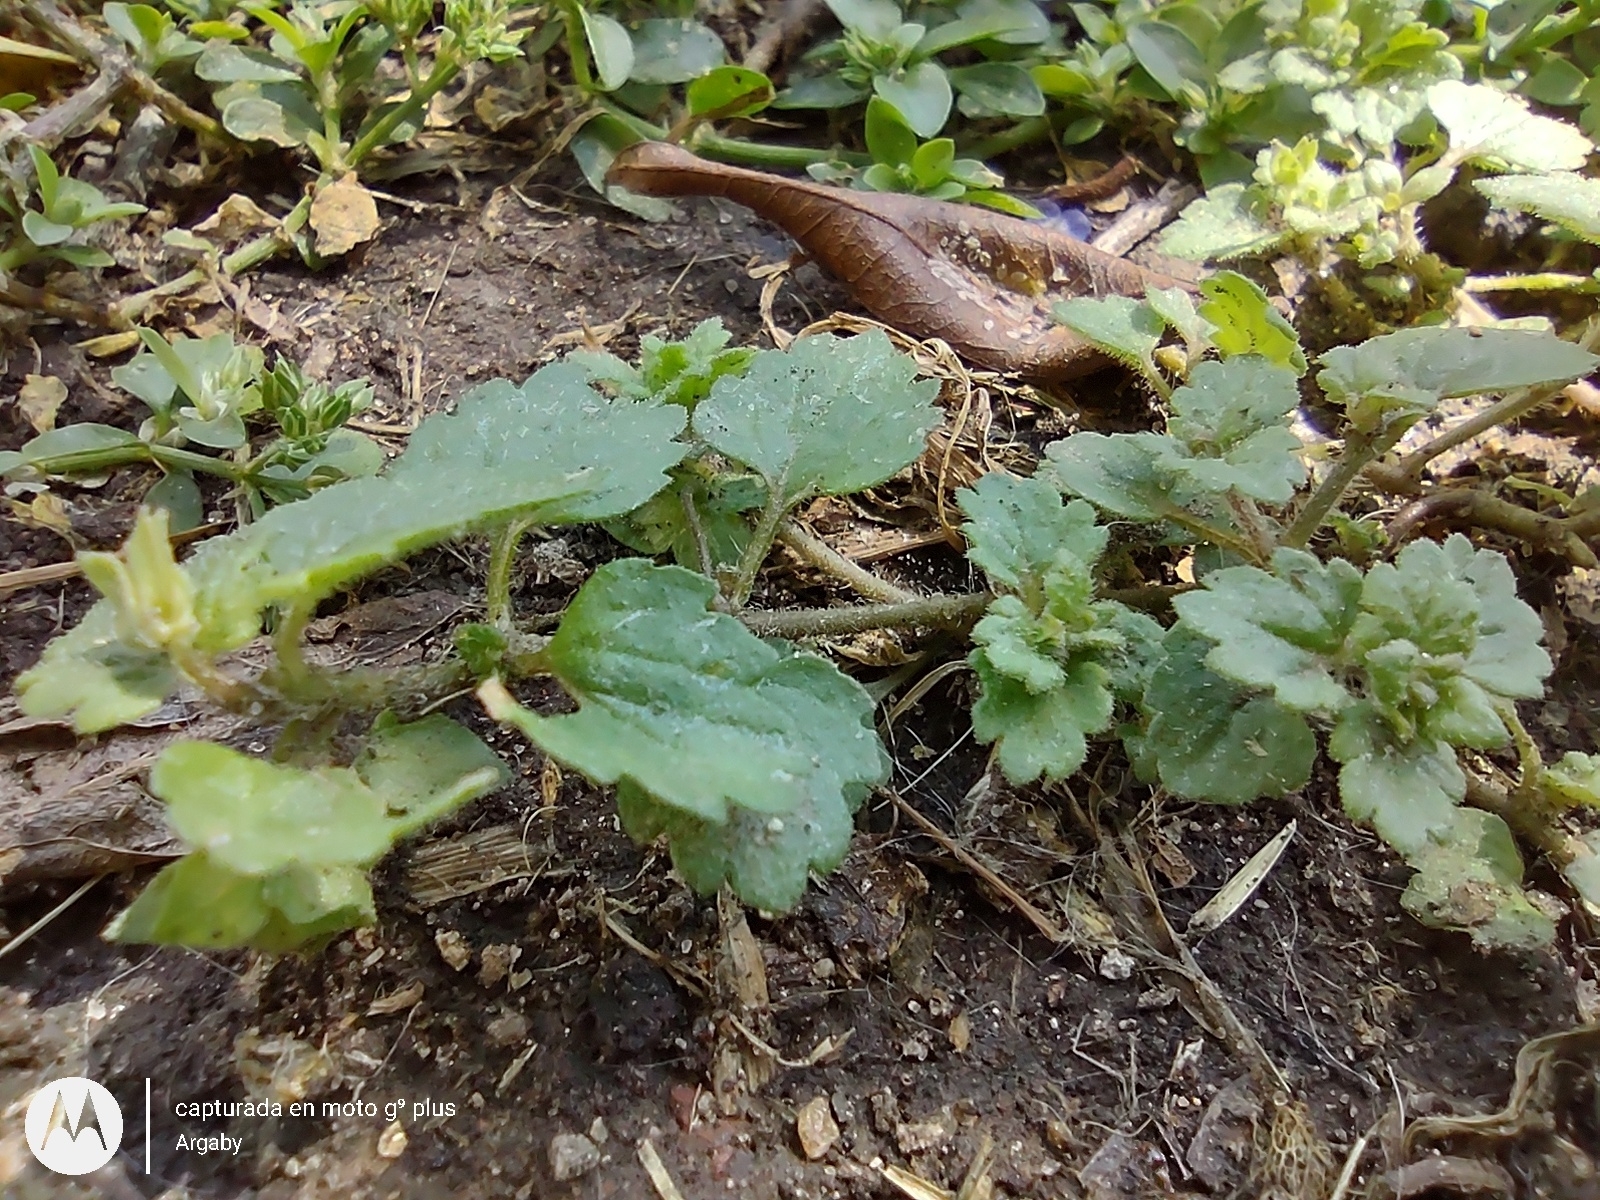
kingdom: Plantae
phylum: Tracheophyta
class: Magnoliopsida
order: Lamiales
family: Plantaginaceae
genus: Veronica
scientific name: Veronica persica
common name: Common field-speedwell
